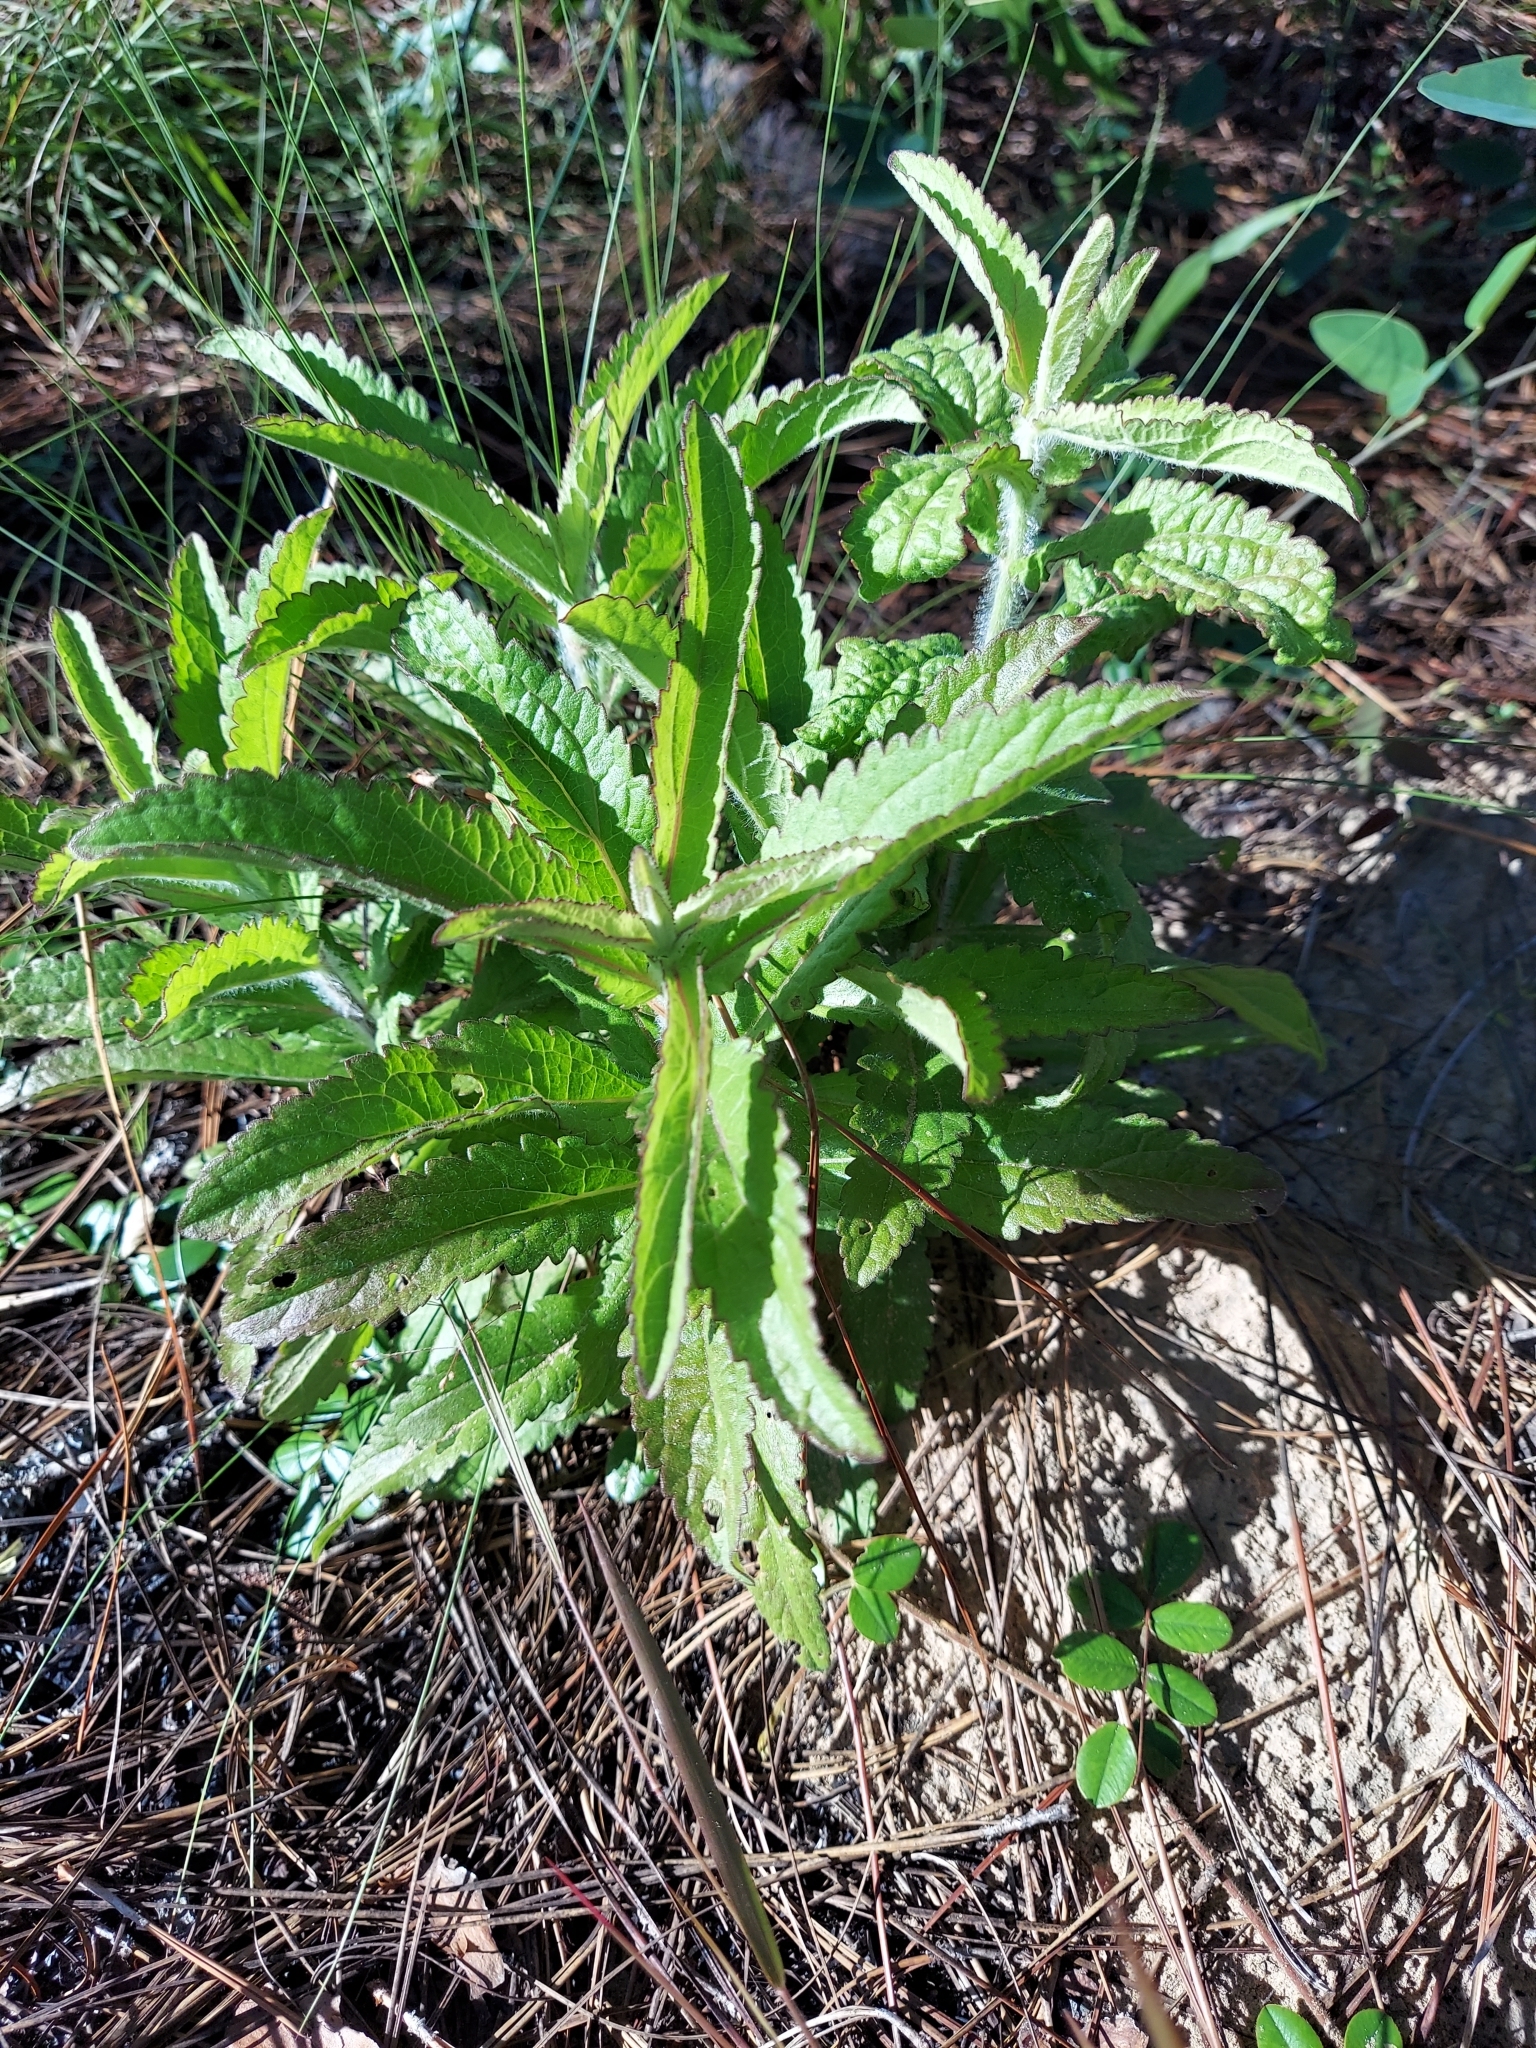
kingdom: Plantae
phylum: Tracheophyta
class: Magnoliopsida
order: Asterales
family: Asteraceae
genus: Eupatorium
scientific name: Eupatorium album
